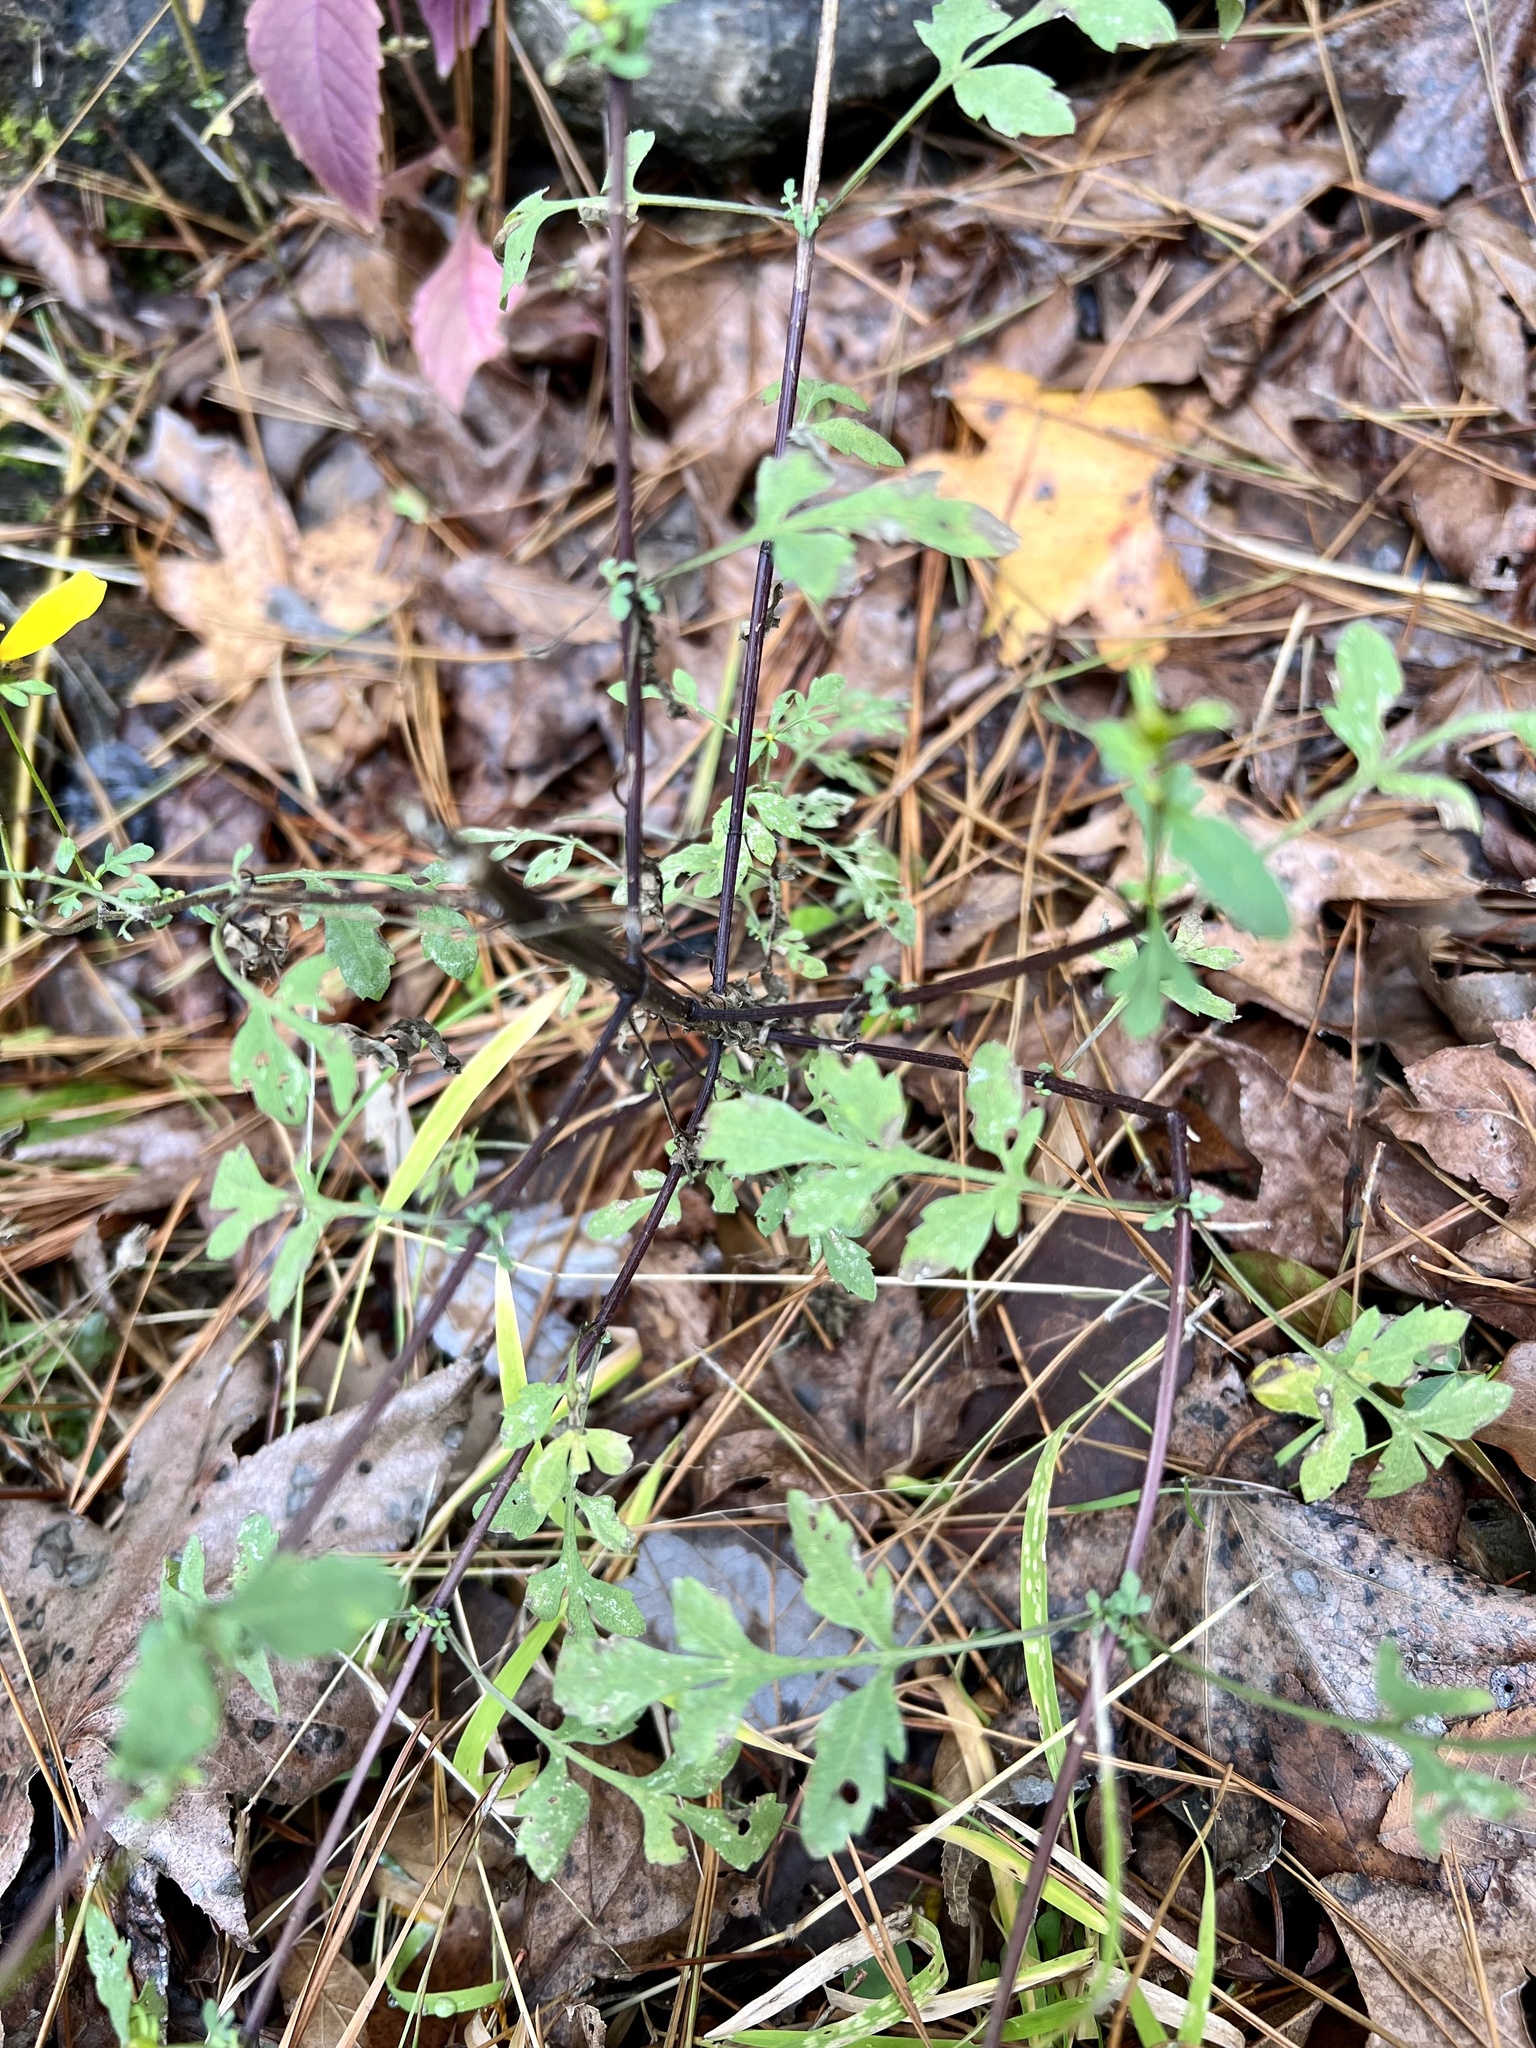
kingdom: Plantae
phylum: Tracheophyta
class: Magnoliopsida
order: Asterales
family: Asteraceae
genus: Bidens
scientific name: Bidens aristosa
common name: Western tickseed
